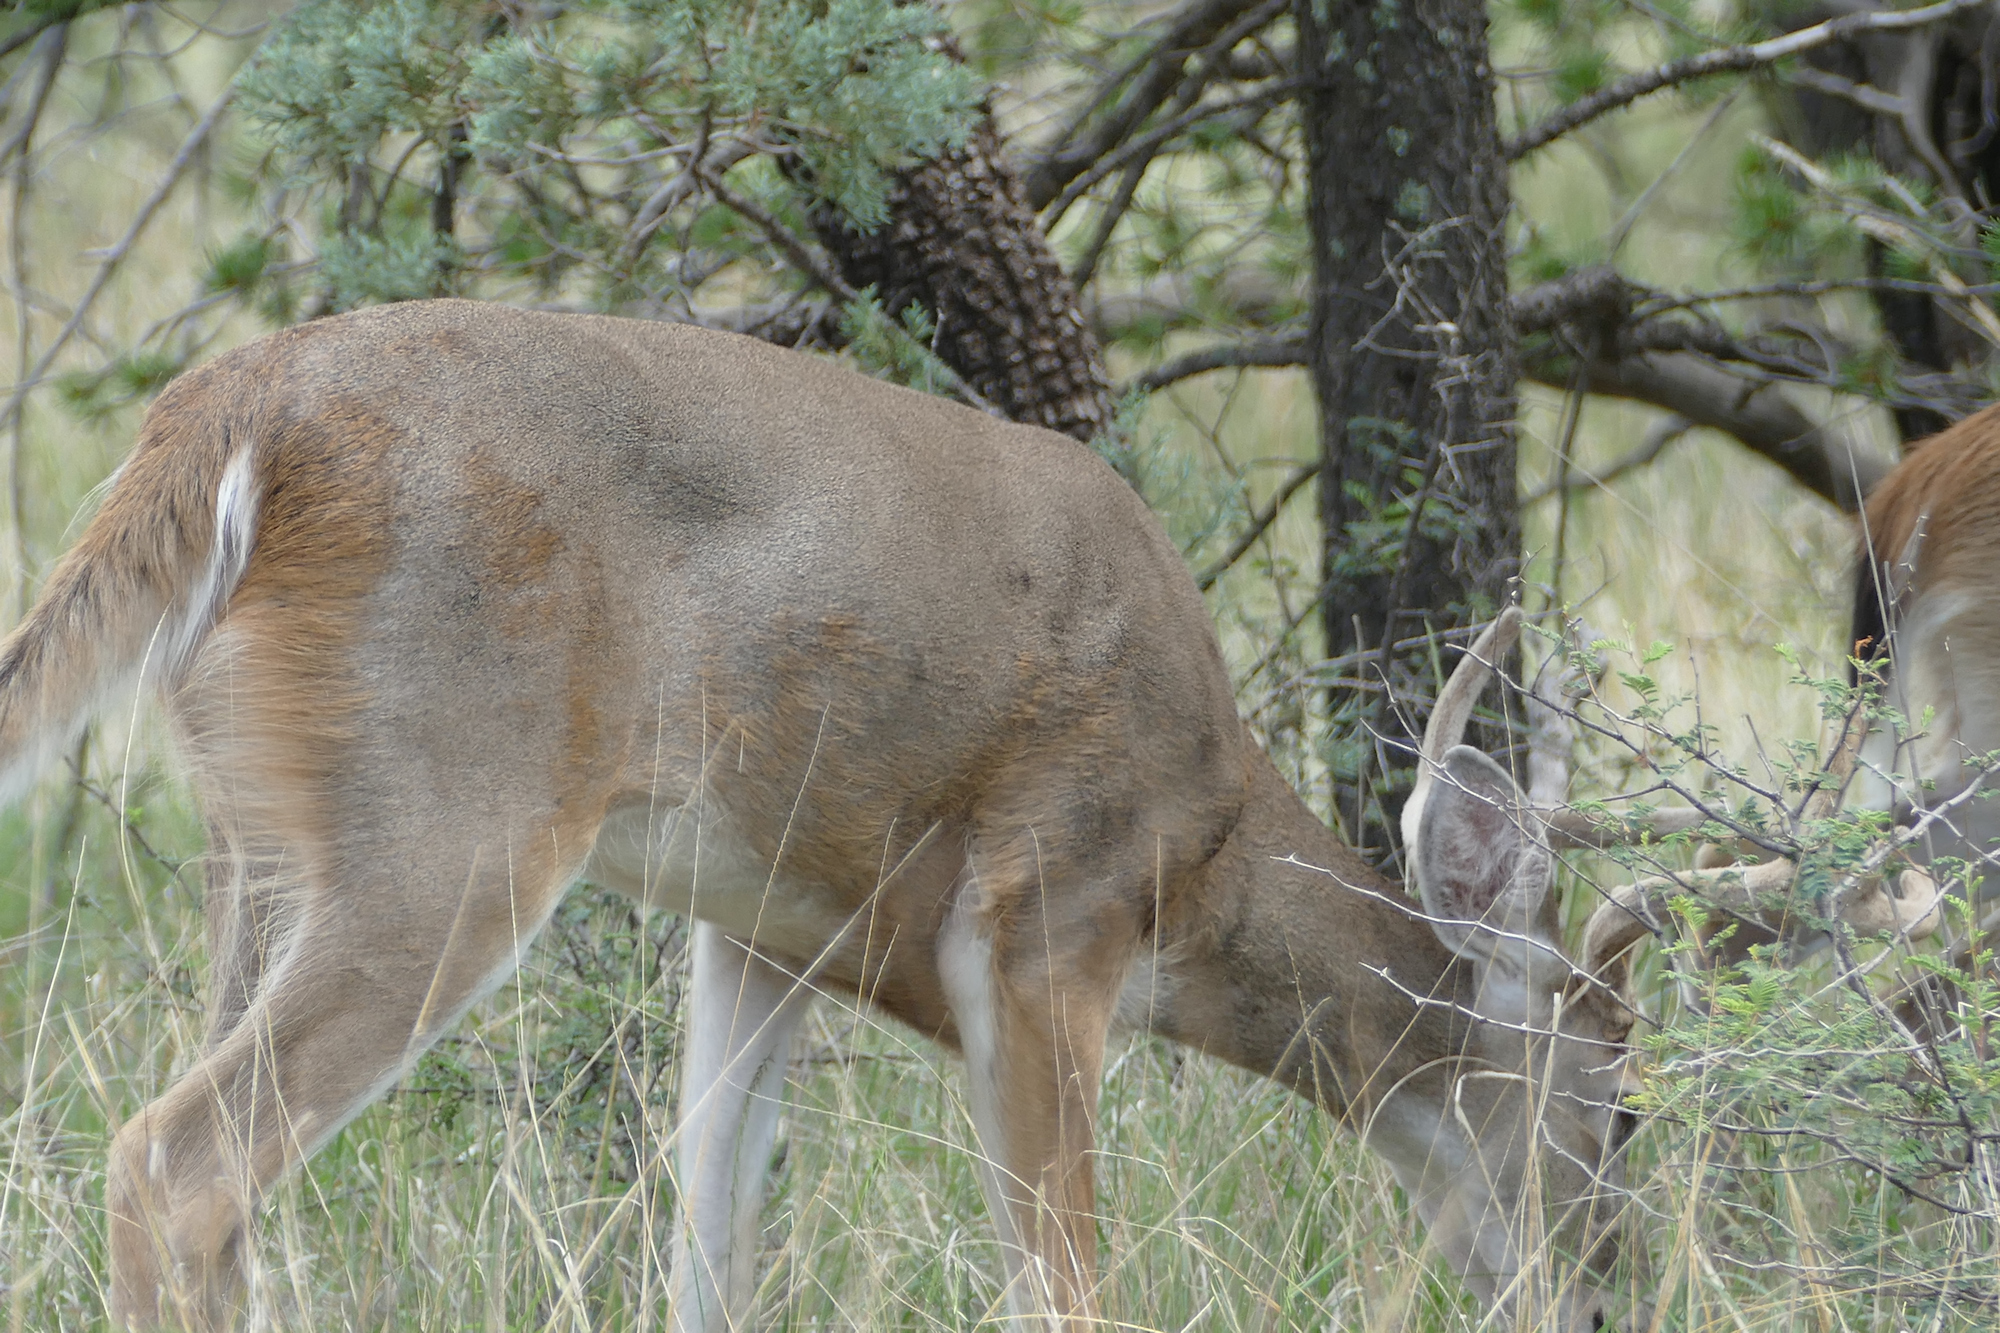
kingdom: Animalia
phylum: Chordata
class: Mammalia
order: Artiodactyla
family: Cervidae
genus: Odocoileus
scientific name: Odocoileus virginianus
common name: White-tailed deer
